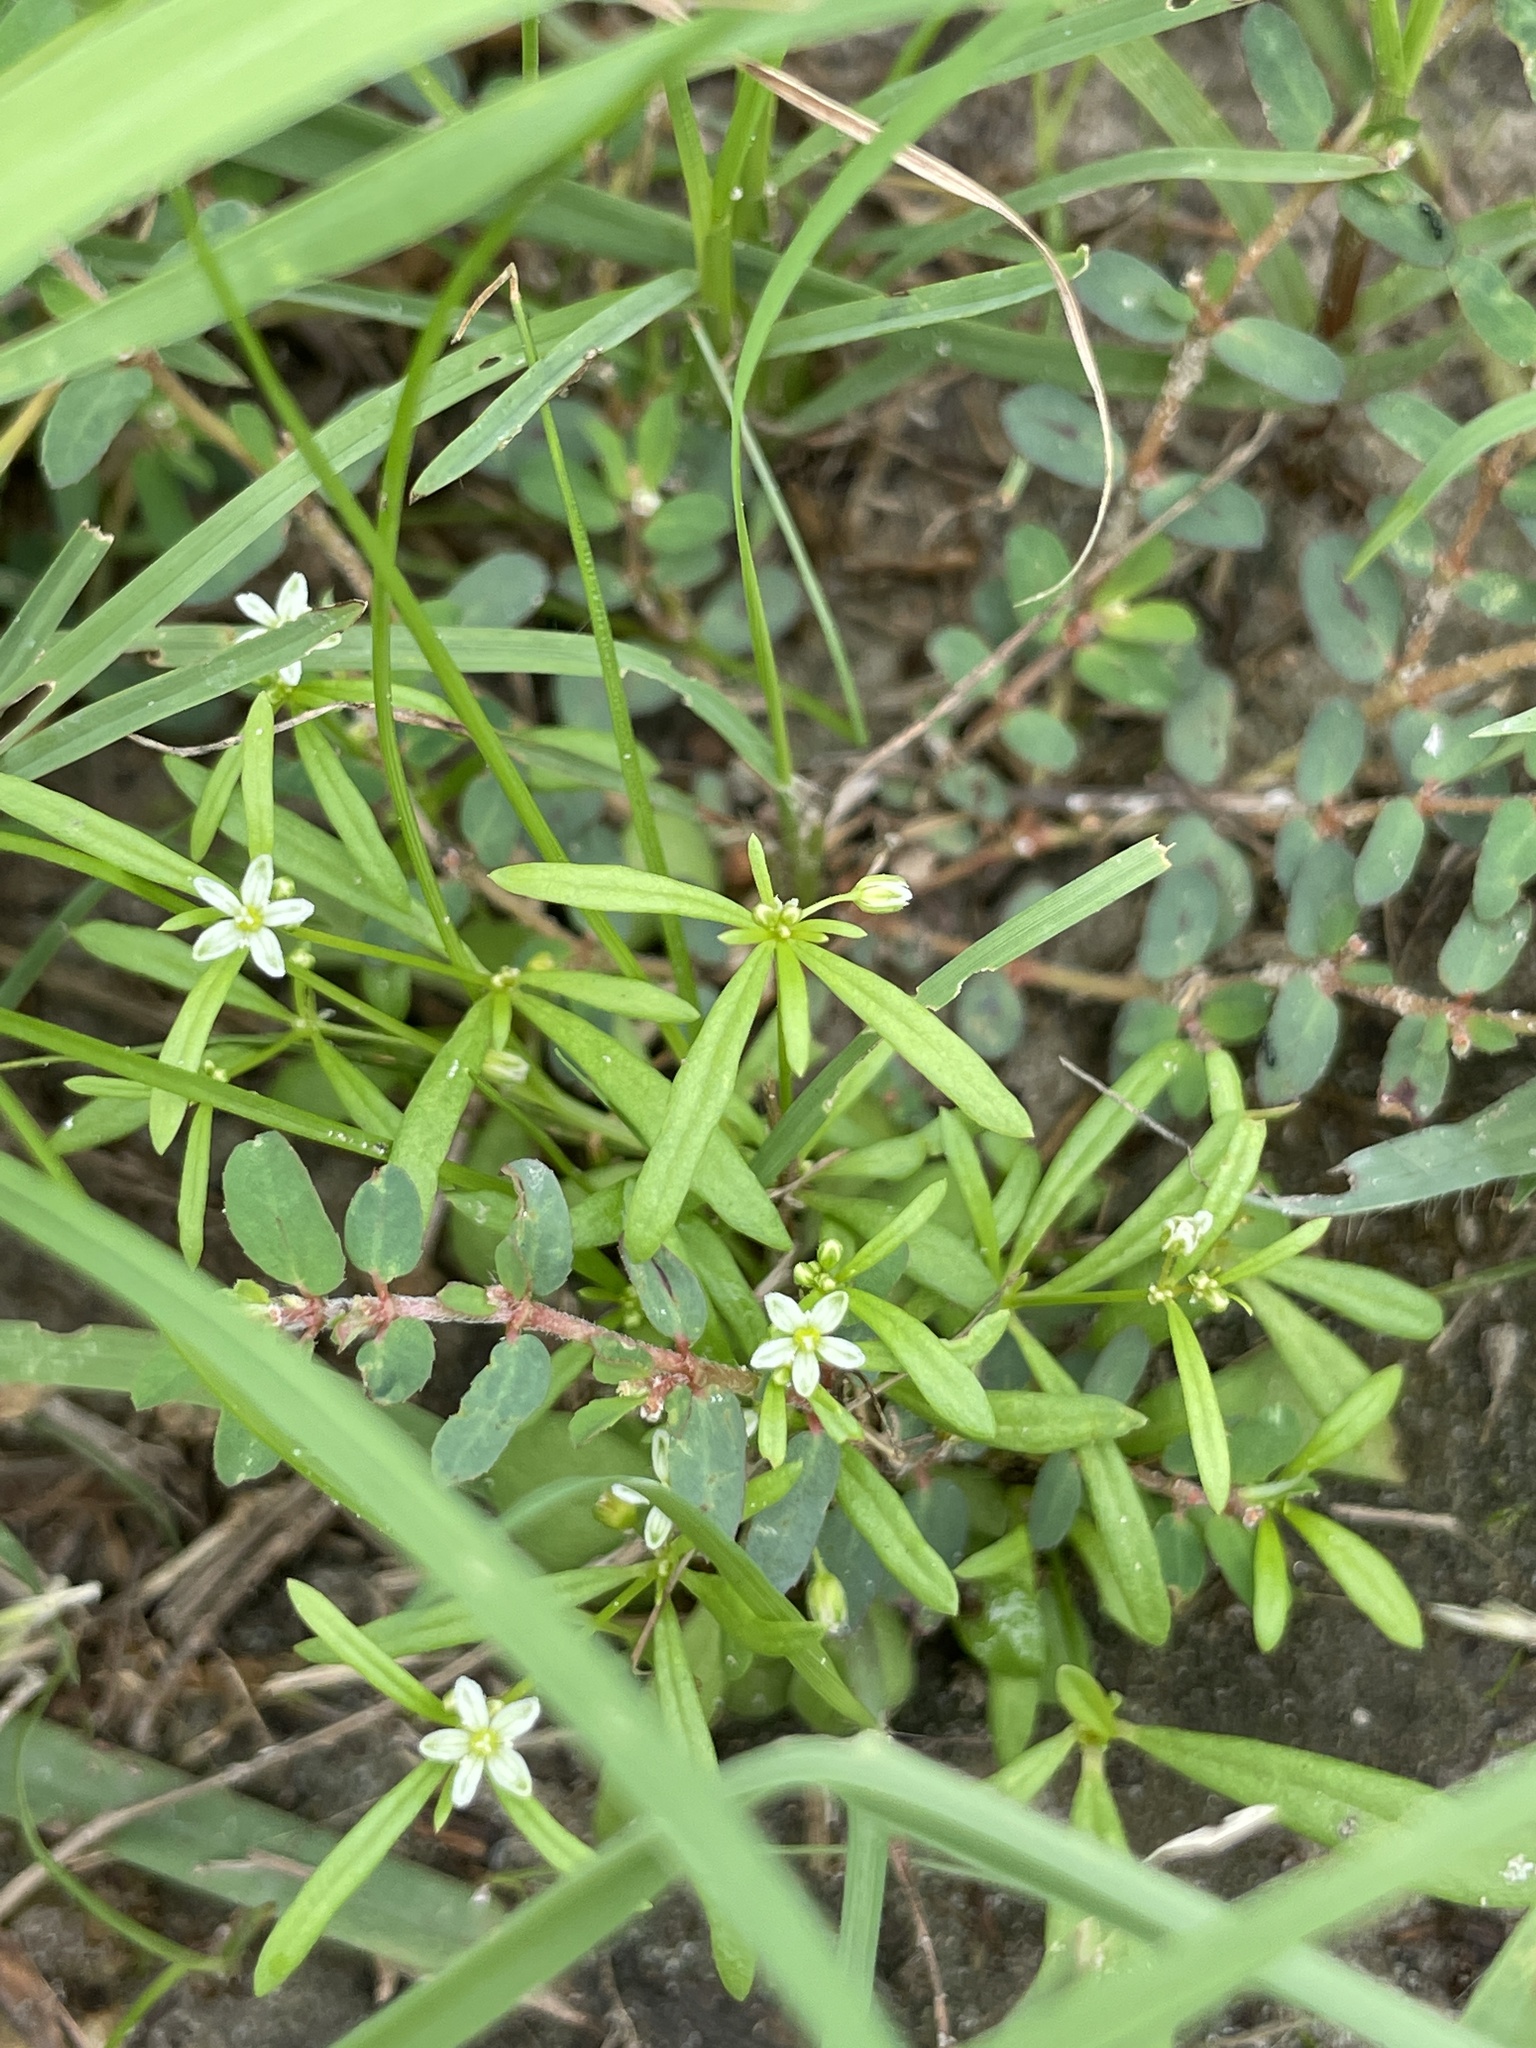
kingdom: Plantae
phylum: Tracheophyta
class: Magnoliopsida
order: Caryophyllales
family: Molluginaceae
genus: Mollugo
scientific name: Mollugo verticillata
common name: Green carpetweed
